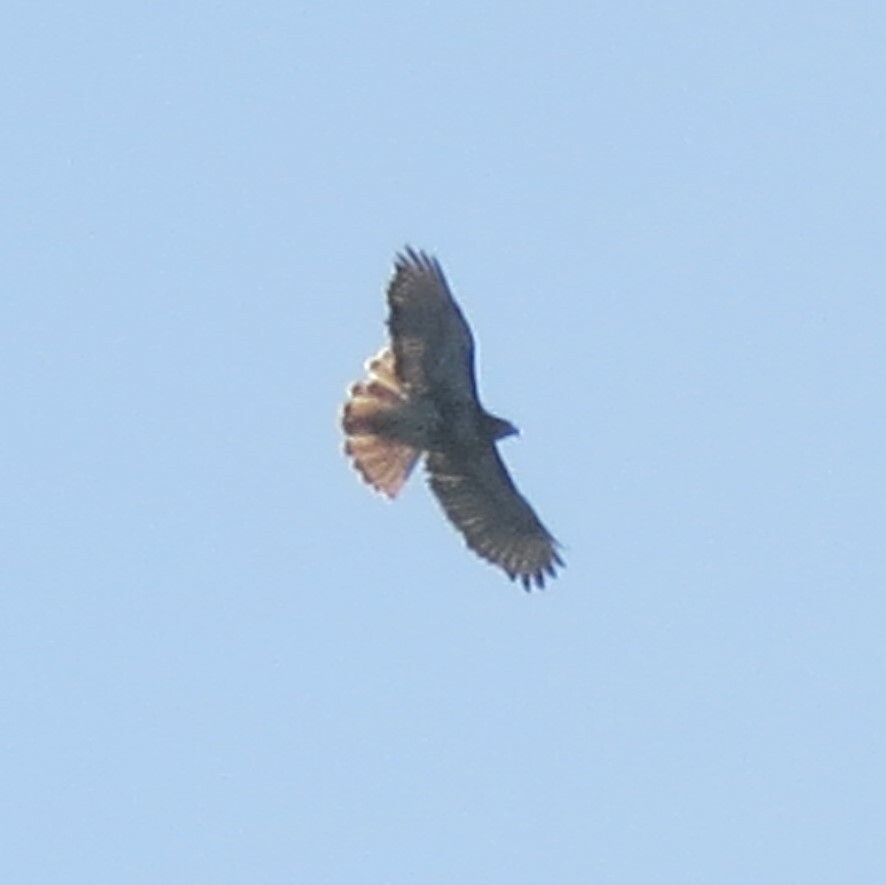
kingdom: Animalia
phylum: Chordata
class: Aves
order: Accipitriformes
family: Accipitridae
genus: Buteo
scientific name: Buteo jamaicensis
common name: Red-tailed hawk
